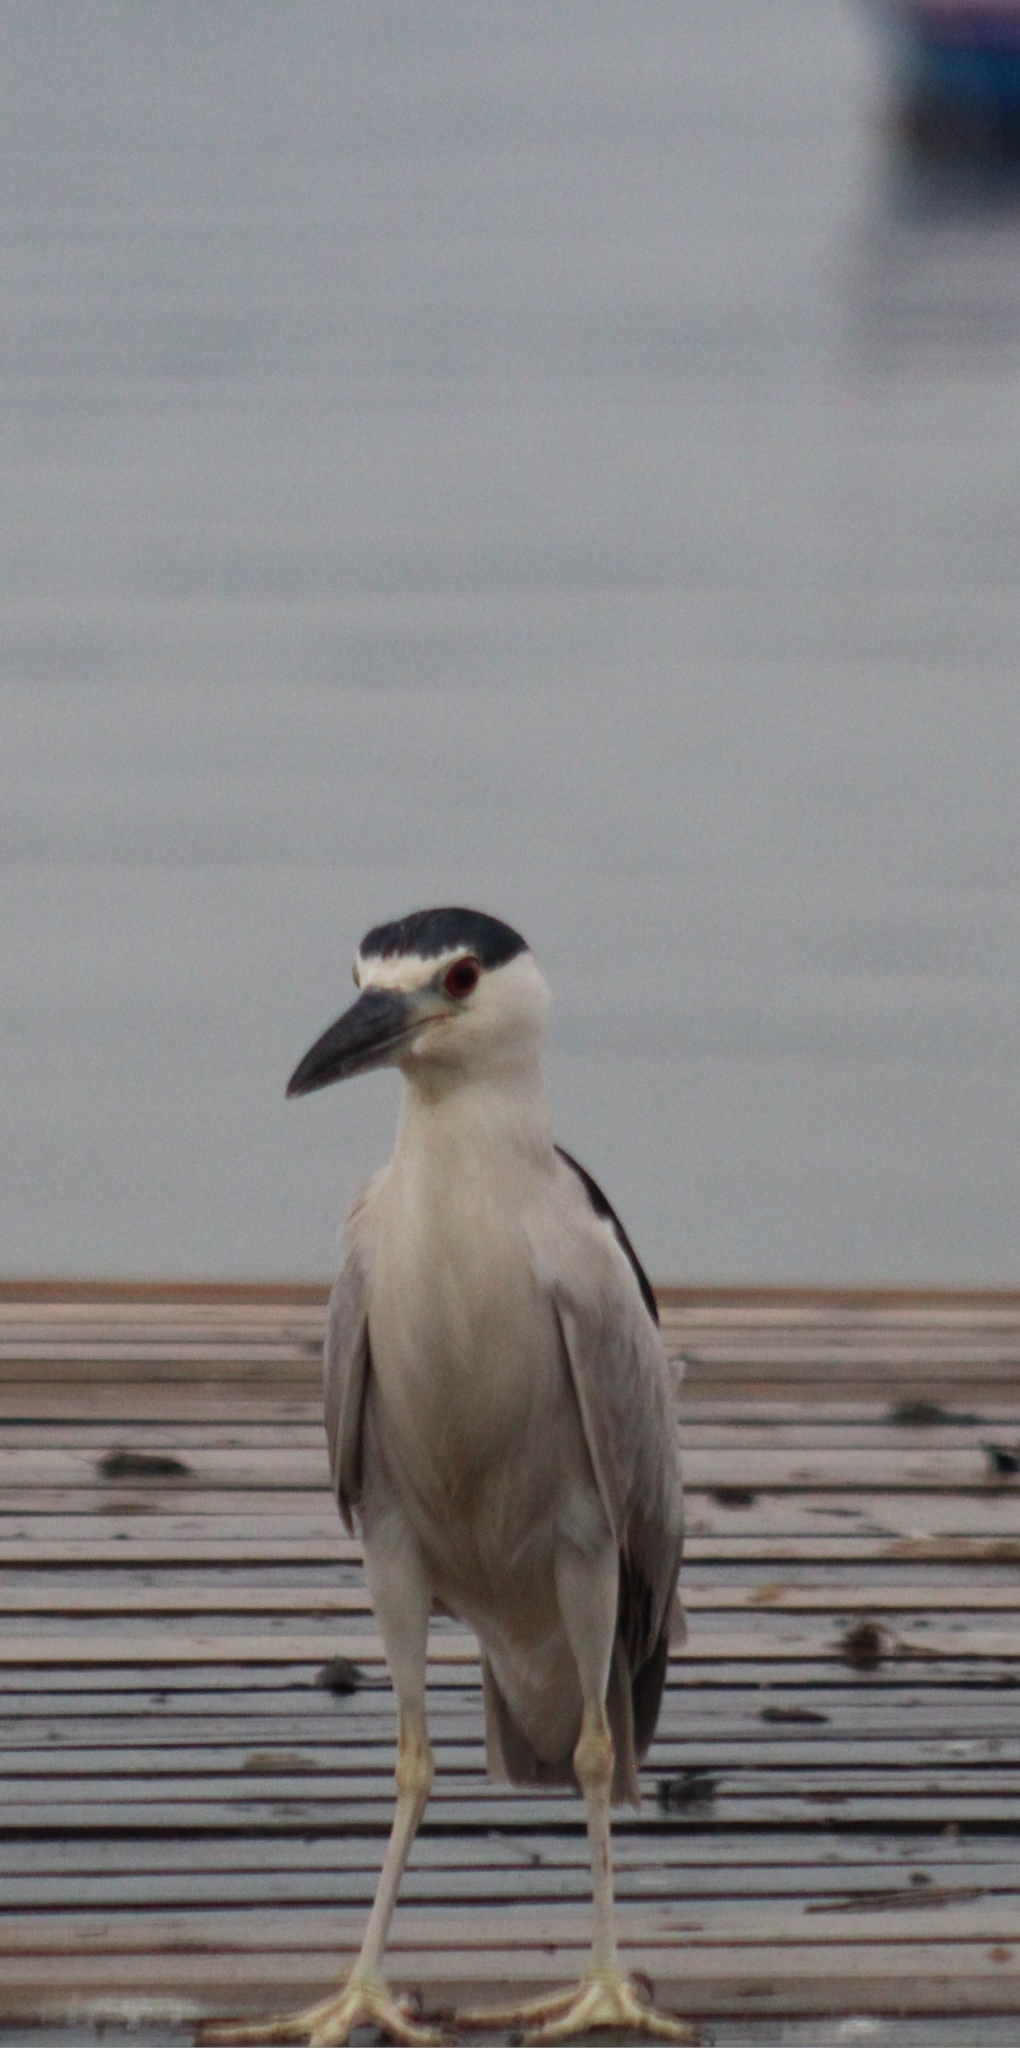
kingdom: Animalia
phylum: Chordata
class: Aves
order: Pelecaniformes
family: Ardeidae
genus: Nycticorax
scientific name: Nycticorax nycticorax
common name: Black-crowned night heron
